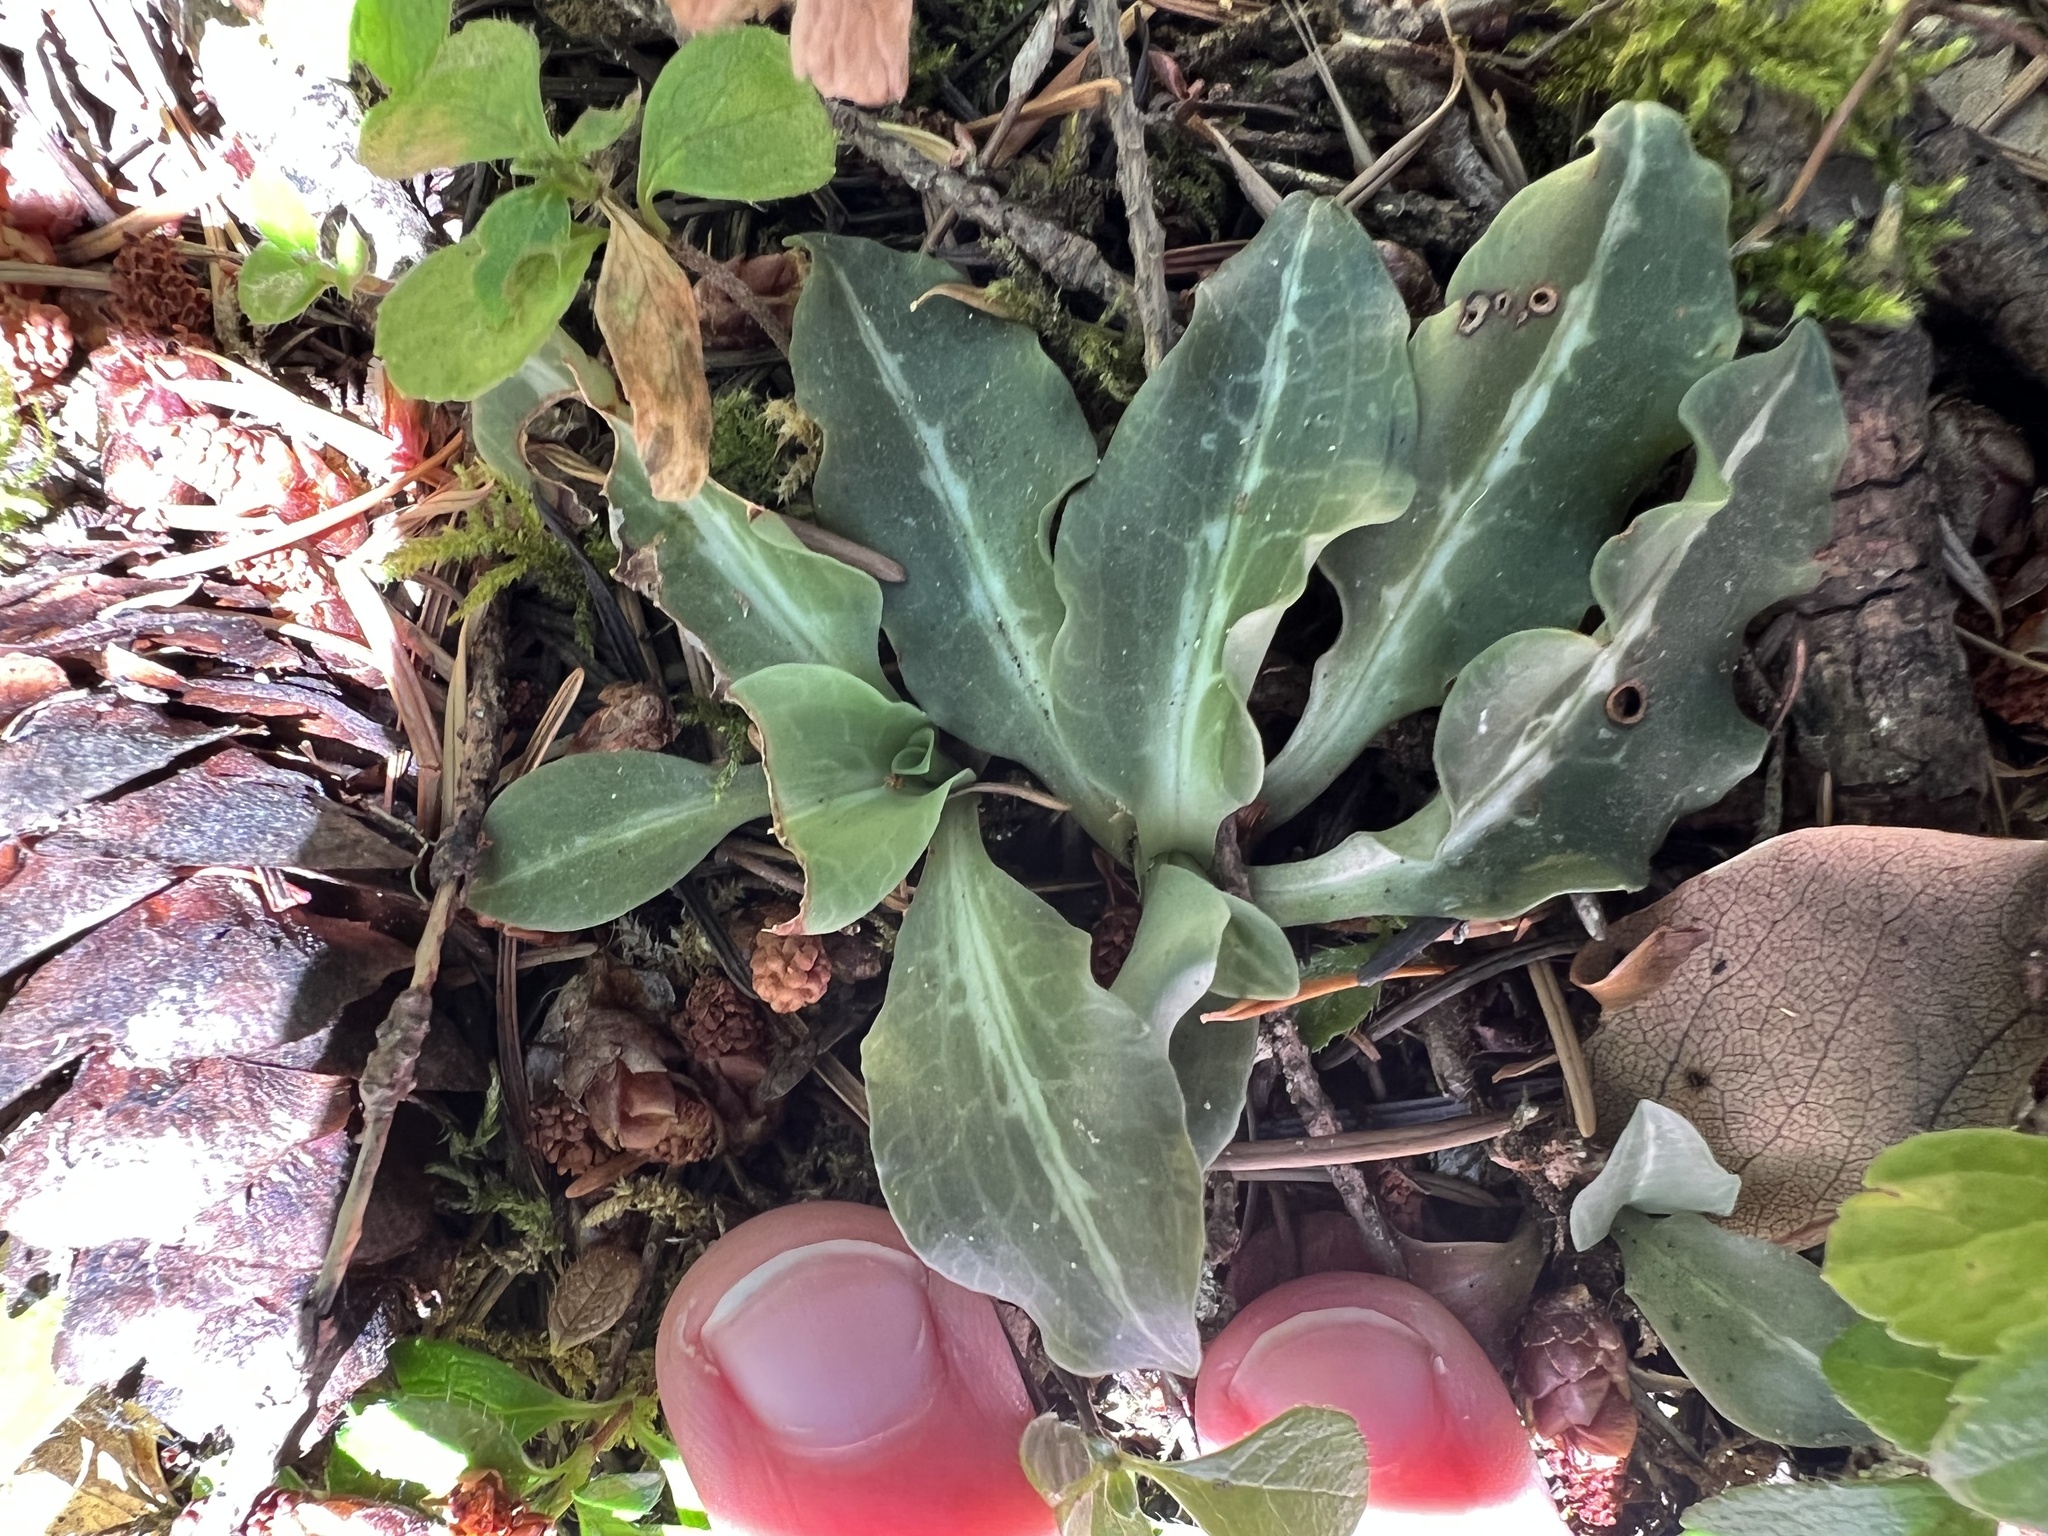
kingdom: Plantae
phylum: Tracheophyta
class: Liliopsida
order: Asparagales
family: Orchidaceae
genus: Goodyera
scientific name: Goodyera oblongifolia
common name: Giant rattlesnake-plantain
